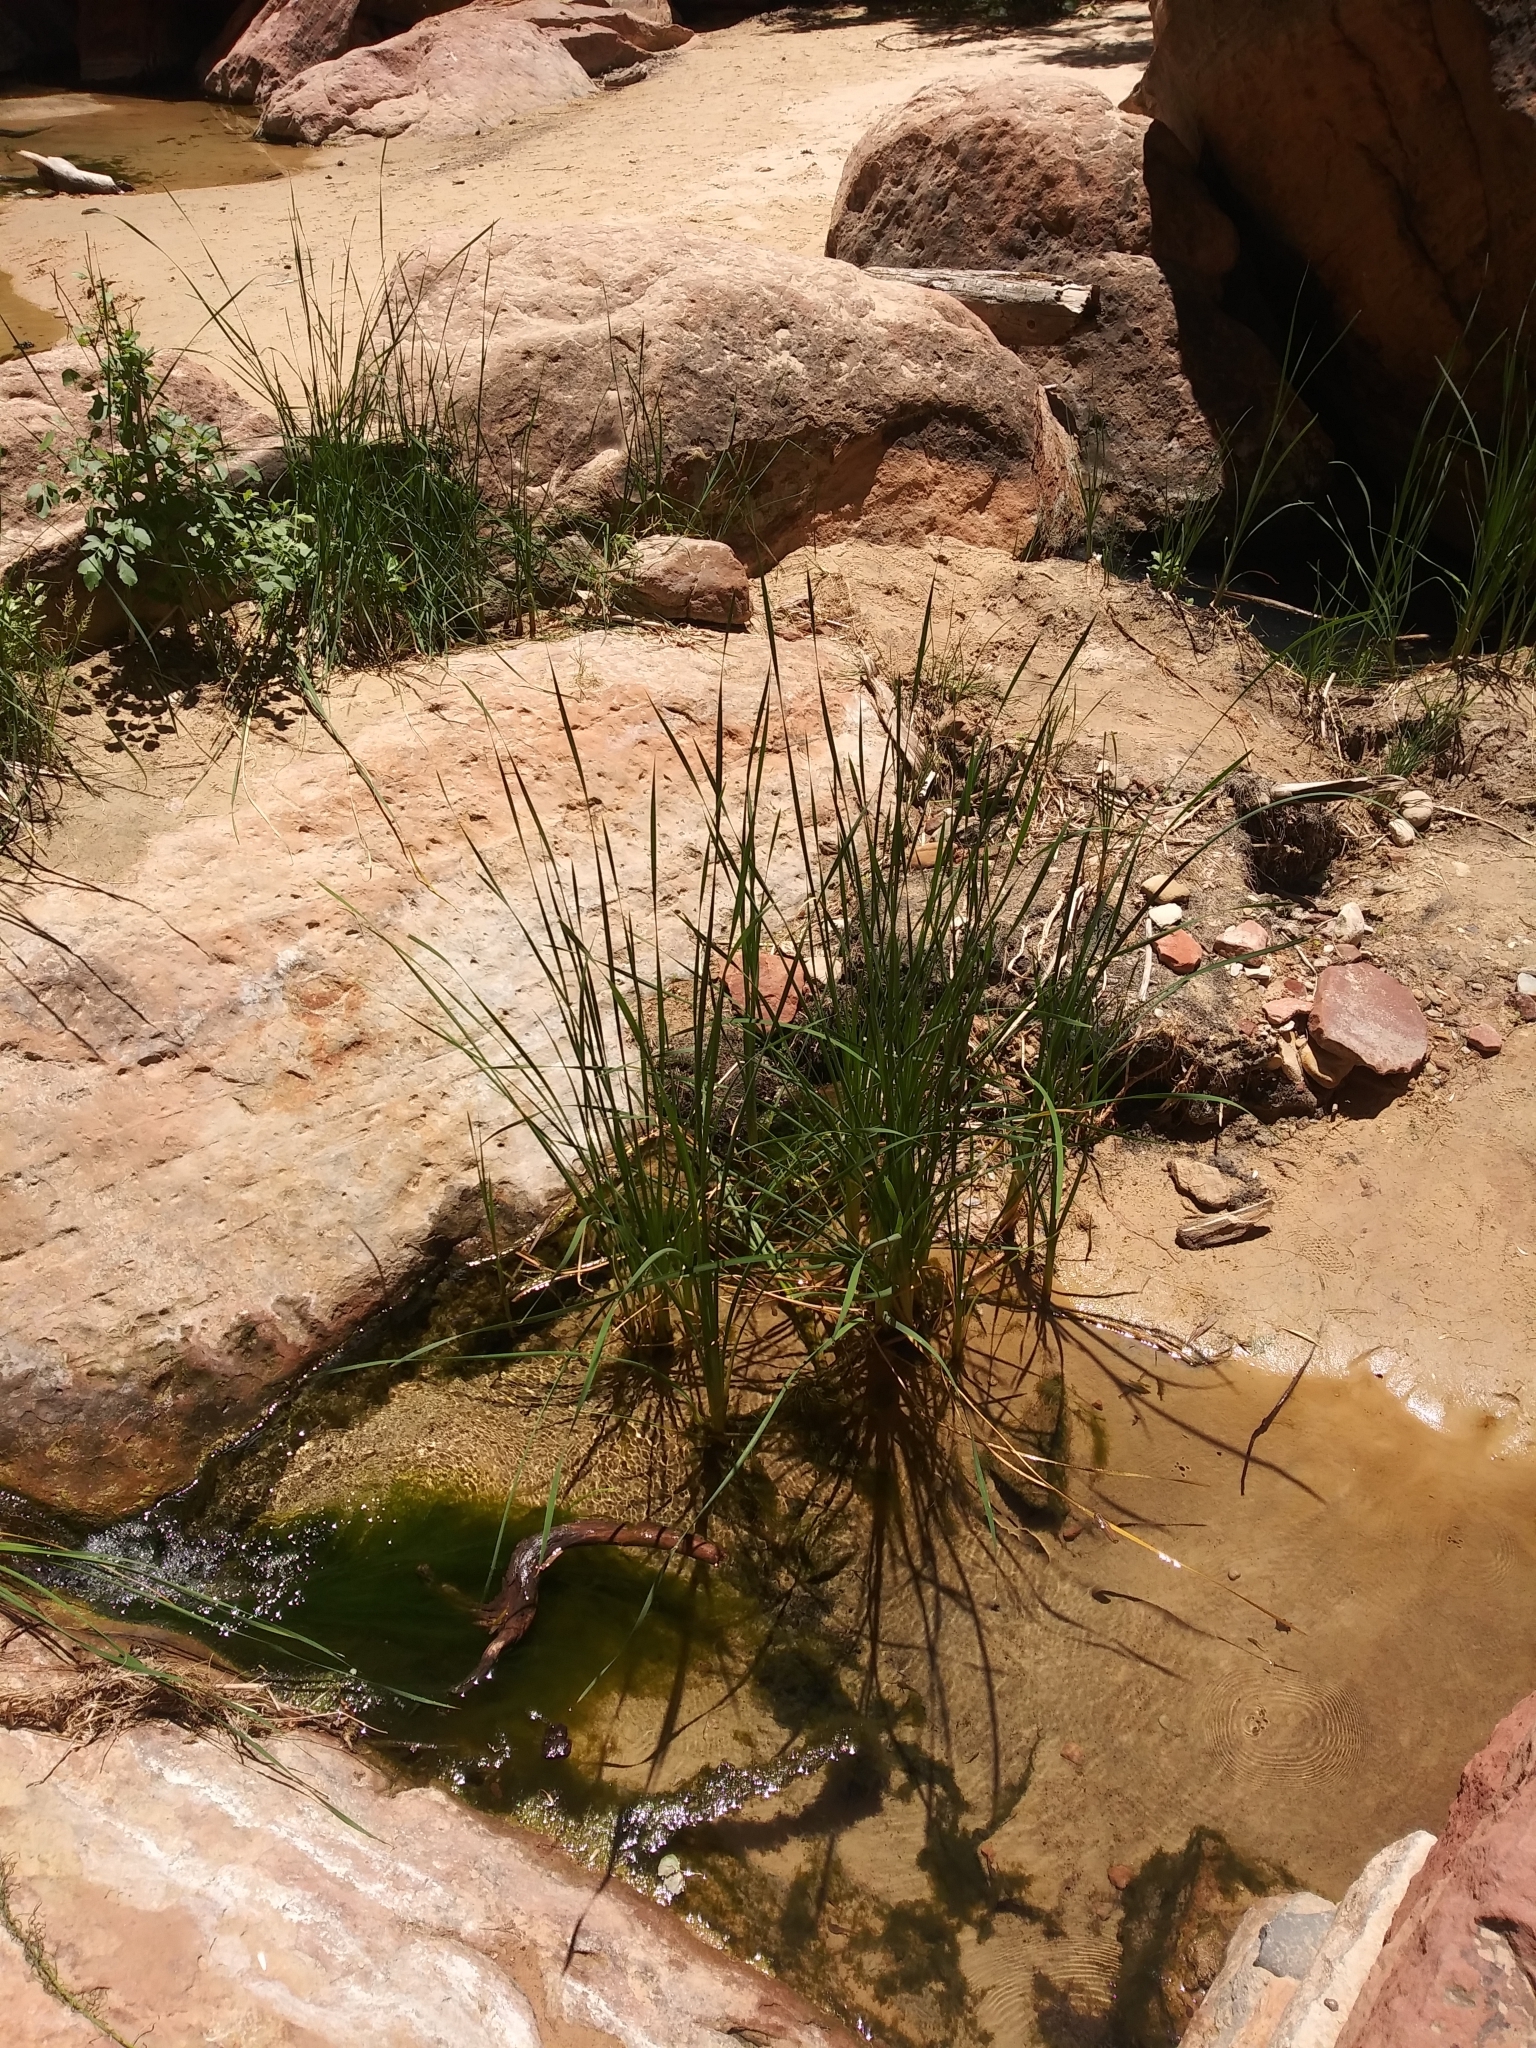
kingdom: Plantae
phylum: Tracheophyta
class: Liliopsida
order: Poales
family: Typhaceae
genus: Typha
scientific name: Typha domingensis
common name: Southern cattail
